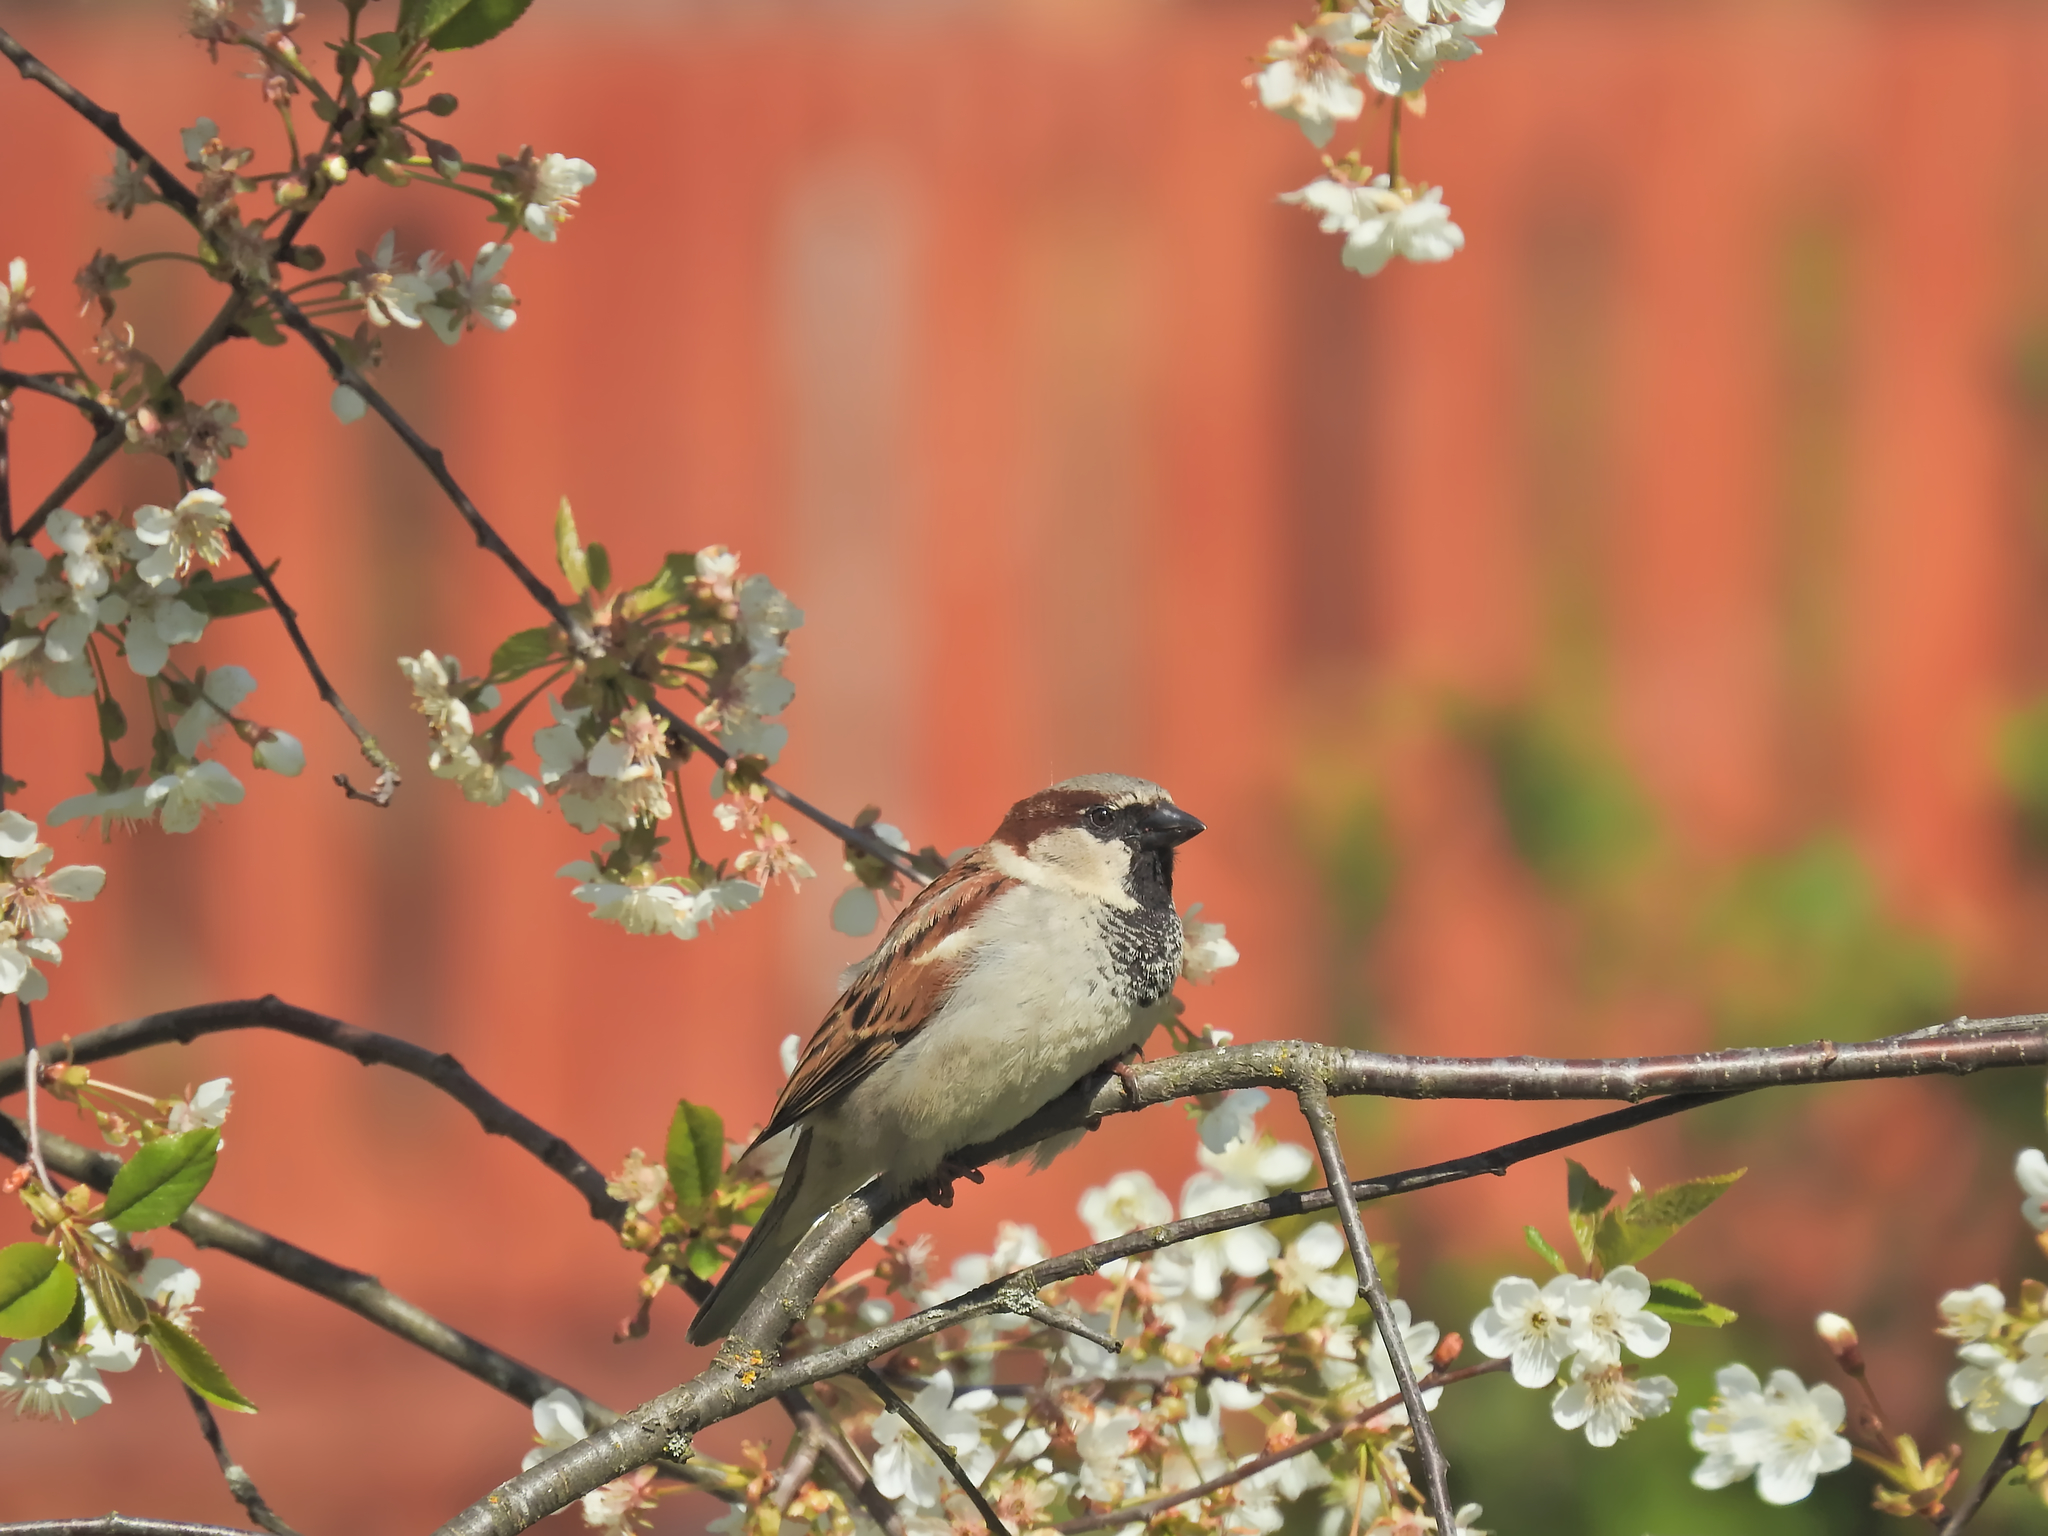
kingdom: Animalia
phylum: Chordata
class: Aves
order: Passeriformes
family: Passeridae
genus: Passer
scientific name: Passer domesticus
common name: House sparrow
